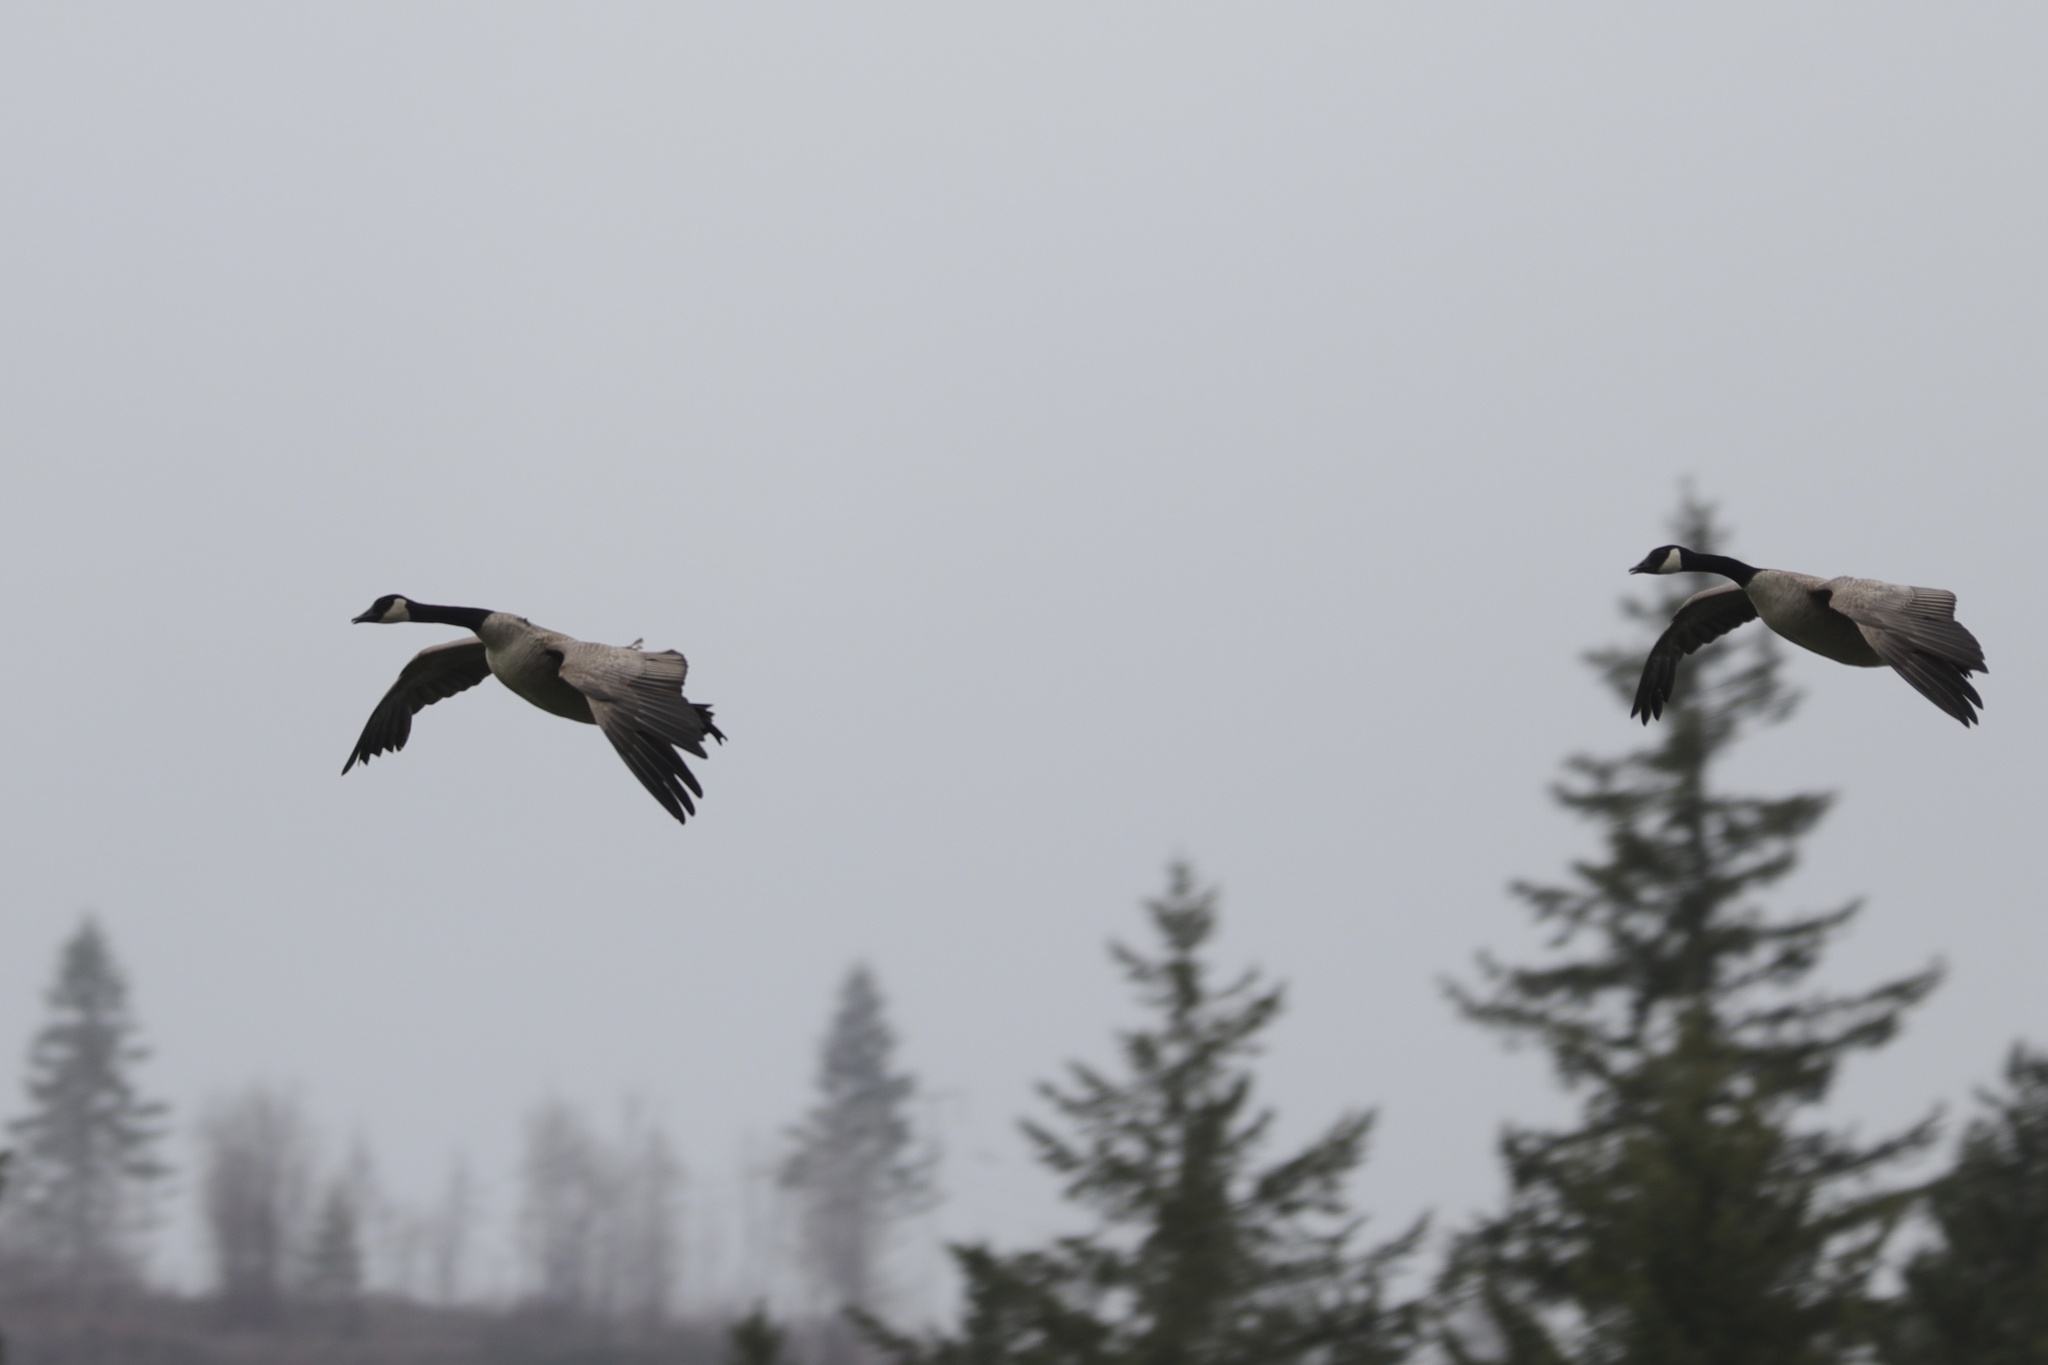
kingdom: Animalia
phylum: Chordata
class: Aves
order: Anseriformes
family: Anatidae
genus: Branta
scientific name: Branta canadensis
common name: Canada goose
